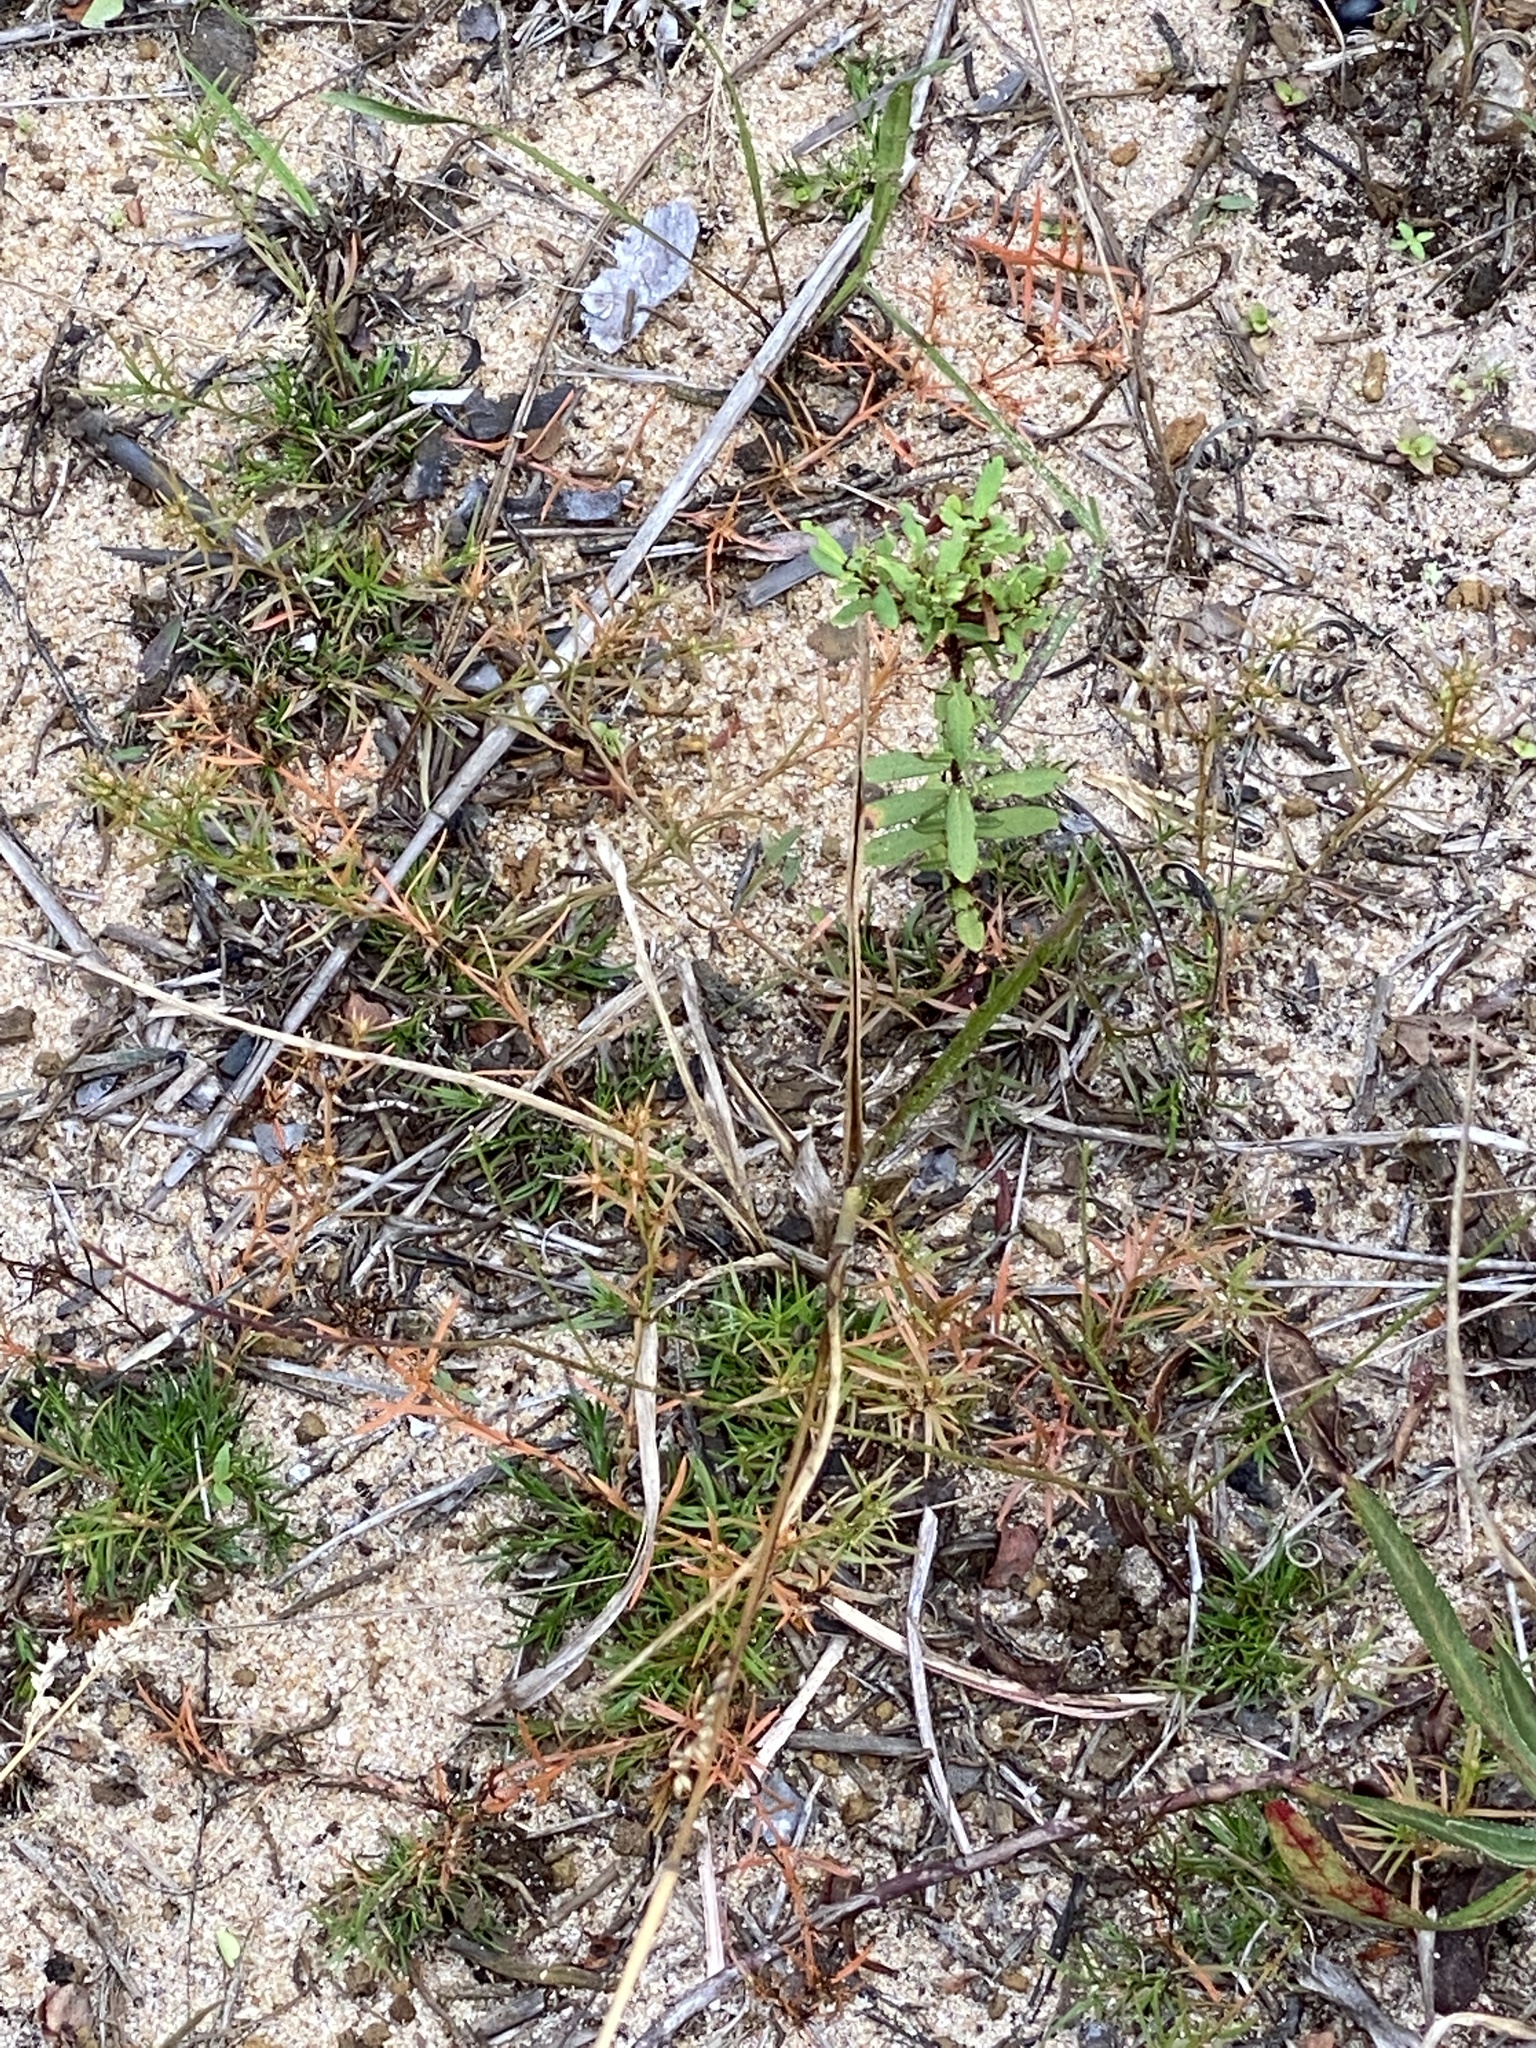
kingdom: Plantae
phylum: Tracheophyta
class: Magnoliopsida
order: Lamiales
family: Tetrachondraceae
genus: Polypremum
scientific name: Polypremum procumbens
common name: Juniper-leaf
